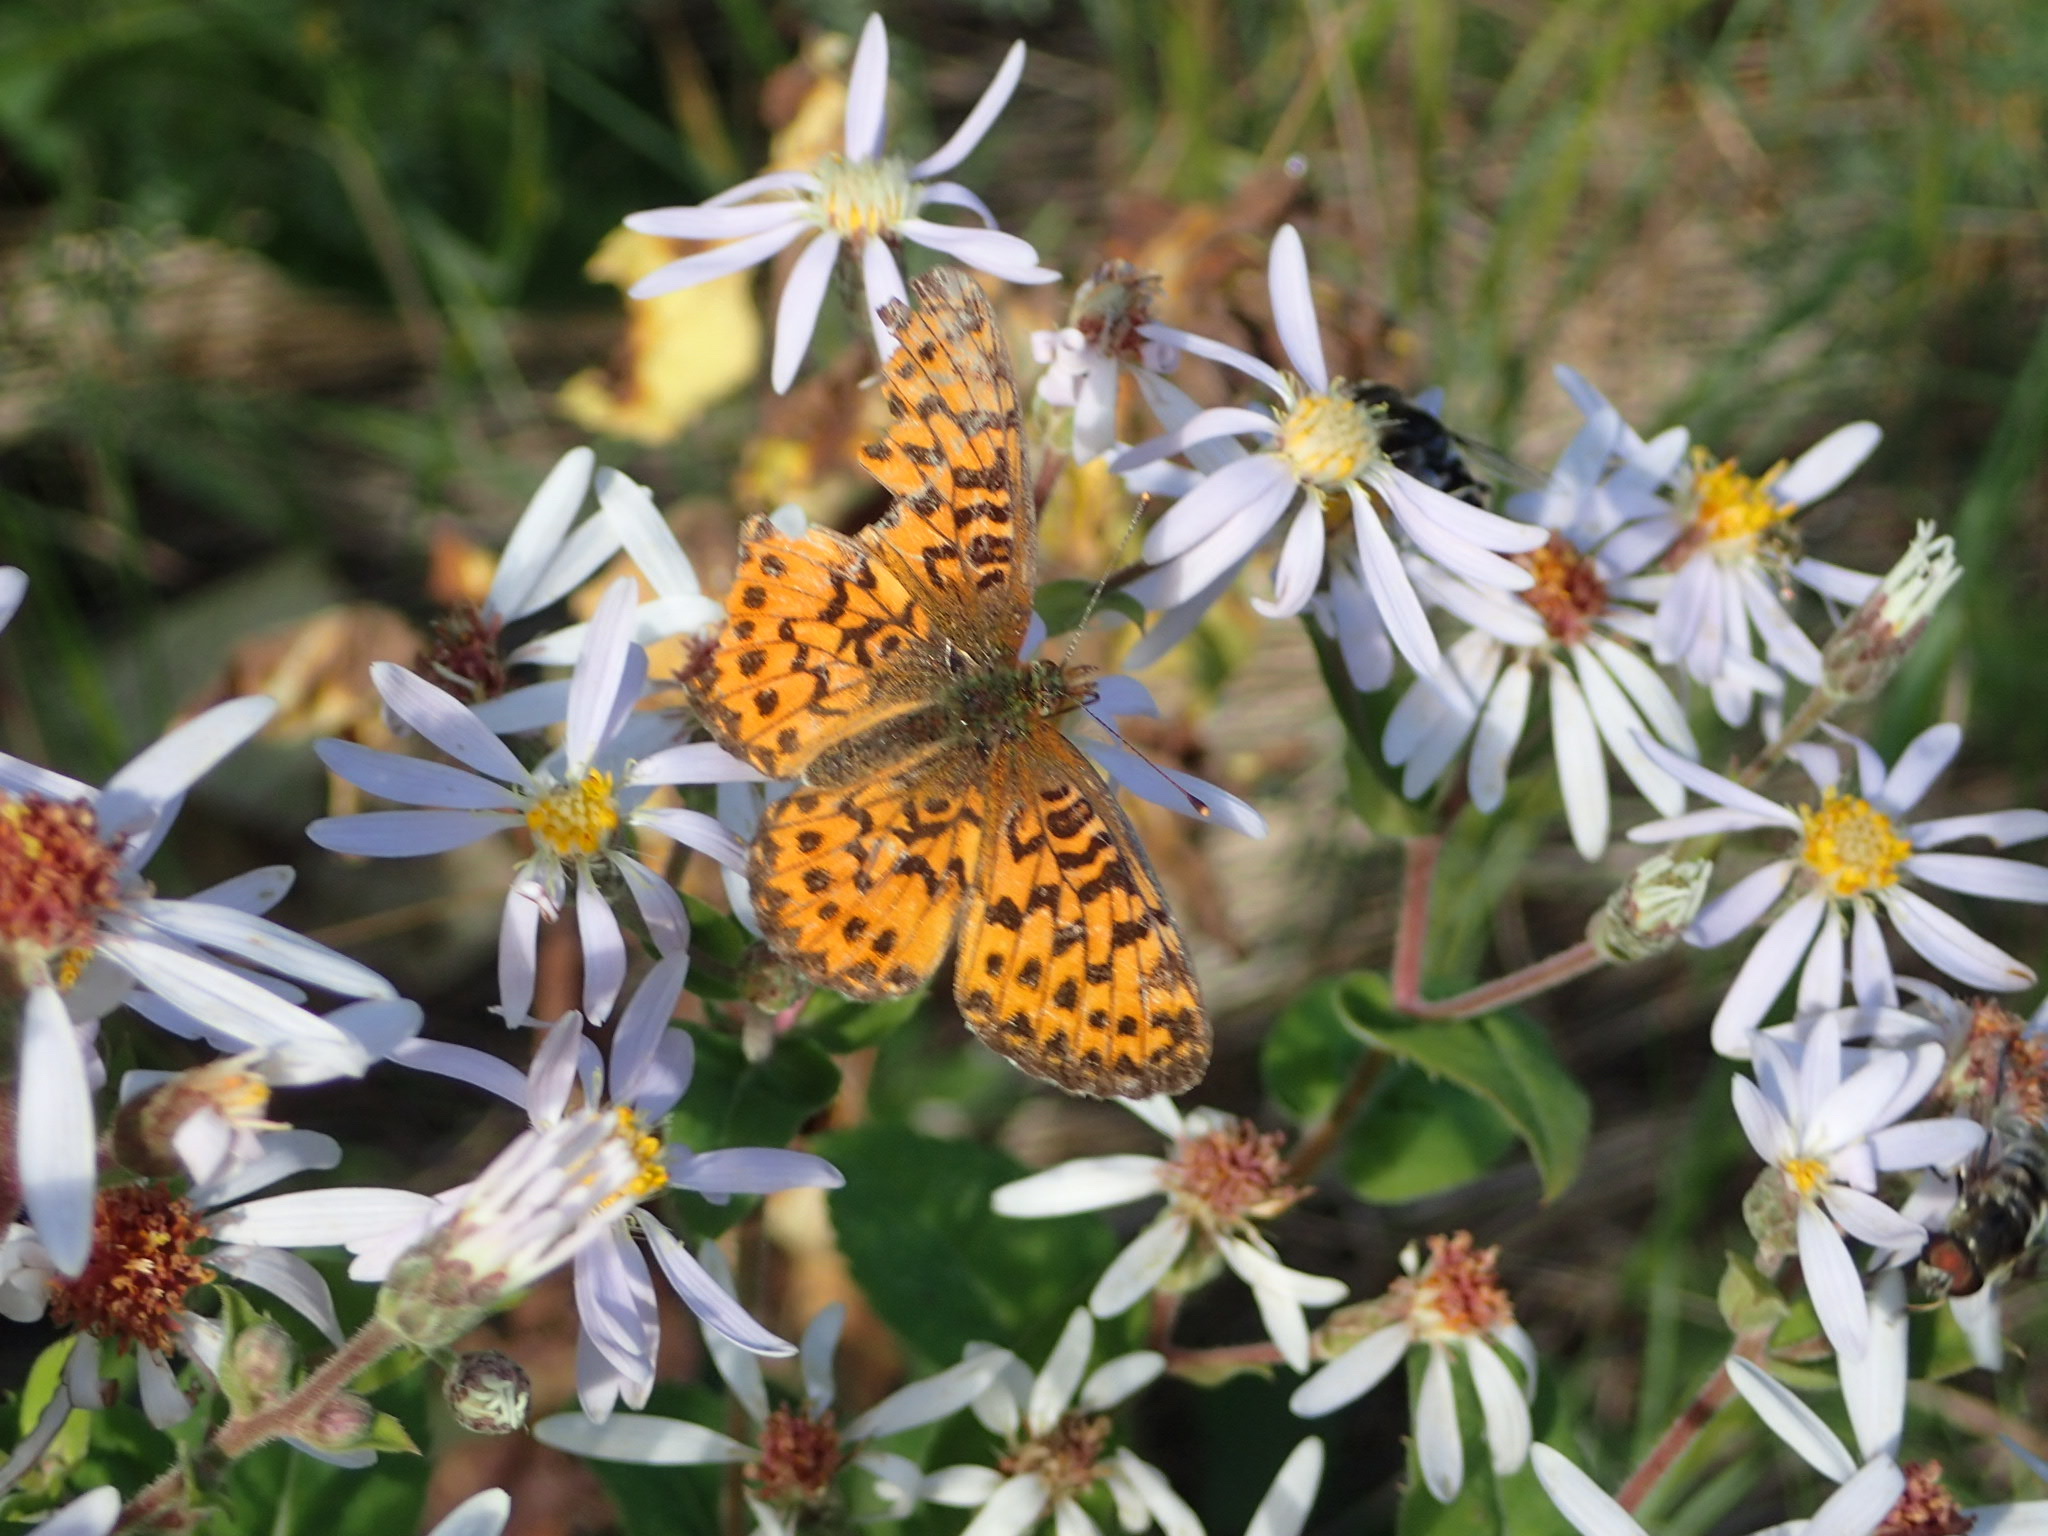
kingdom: Animalia
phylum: Arthropoda
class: Insecta
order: Lepidoptera
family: Nymphalidae
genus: Boloria
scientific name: Boloria chariclea
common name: Arctic fritillary
